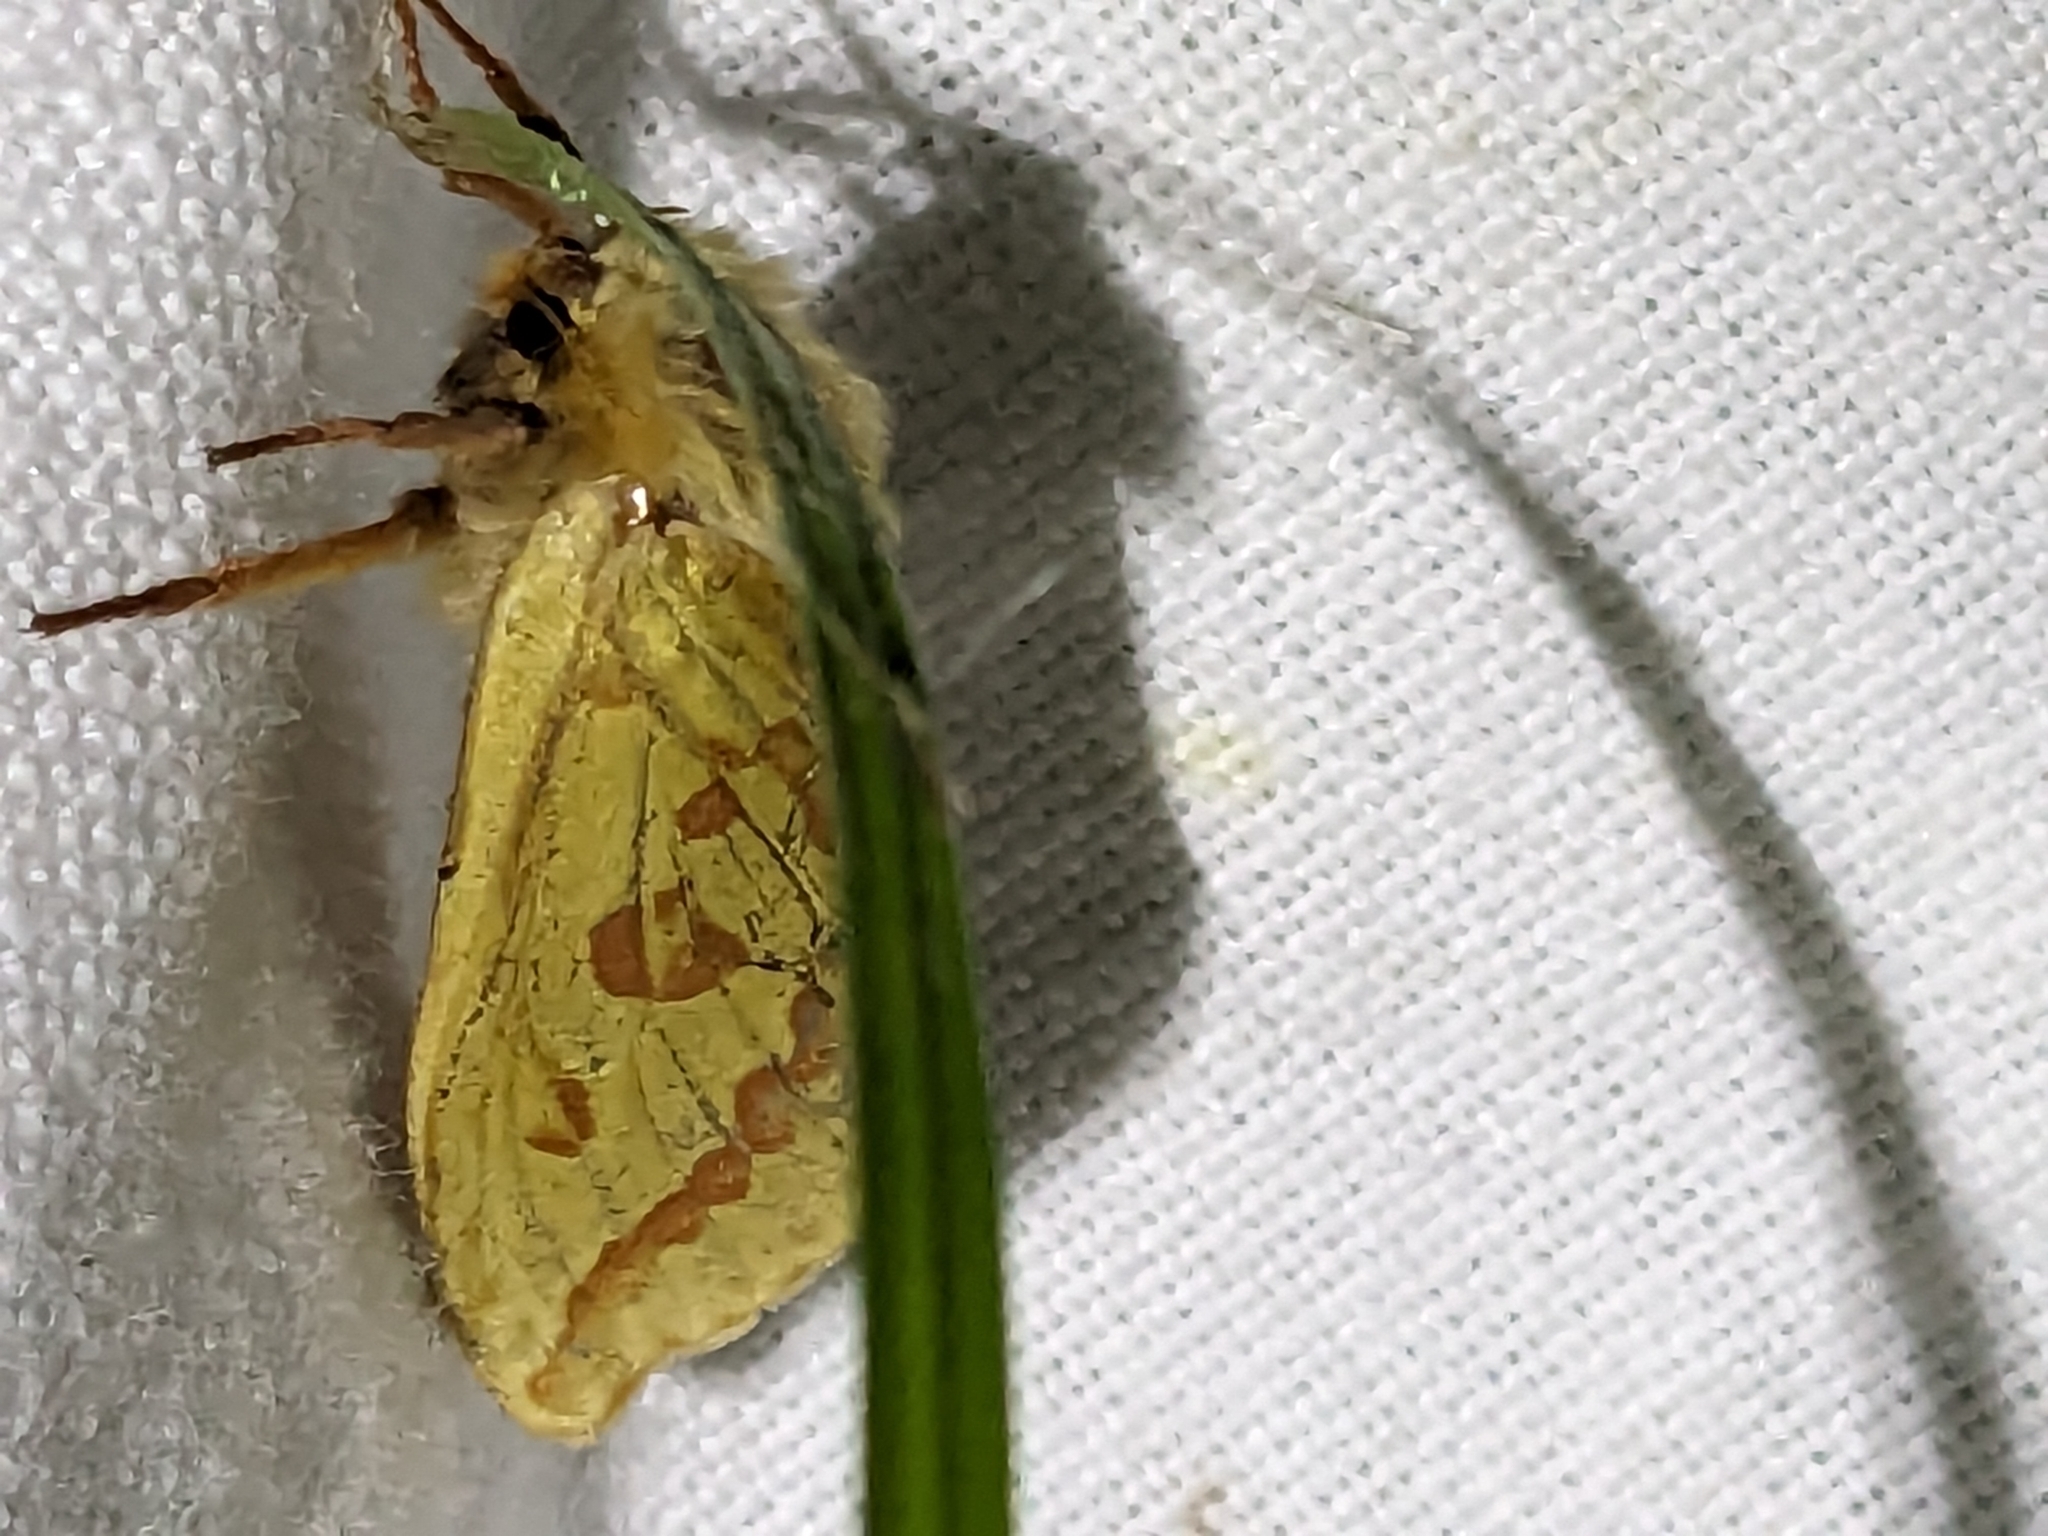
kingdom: Animalia
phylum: Arthropoda
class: Insecta
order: Lepidoptera
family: Hepialidae
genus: Hepialus
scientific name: Hepialus humuli
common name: Ghost moth
